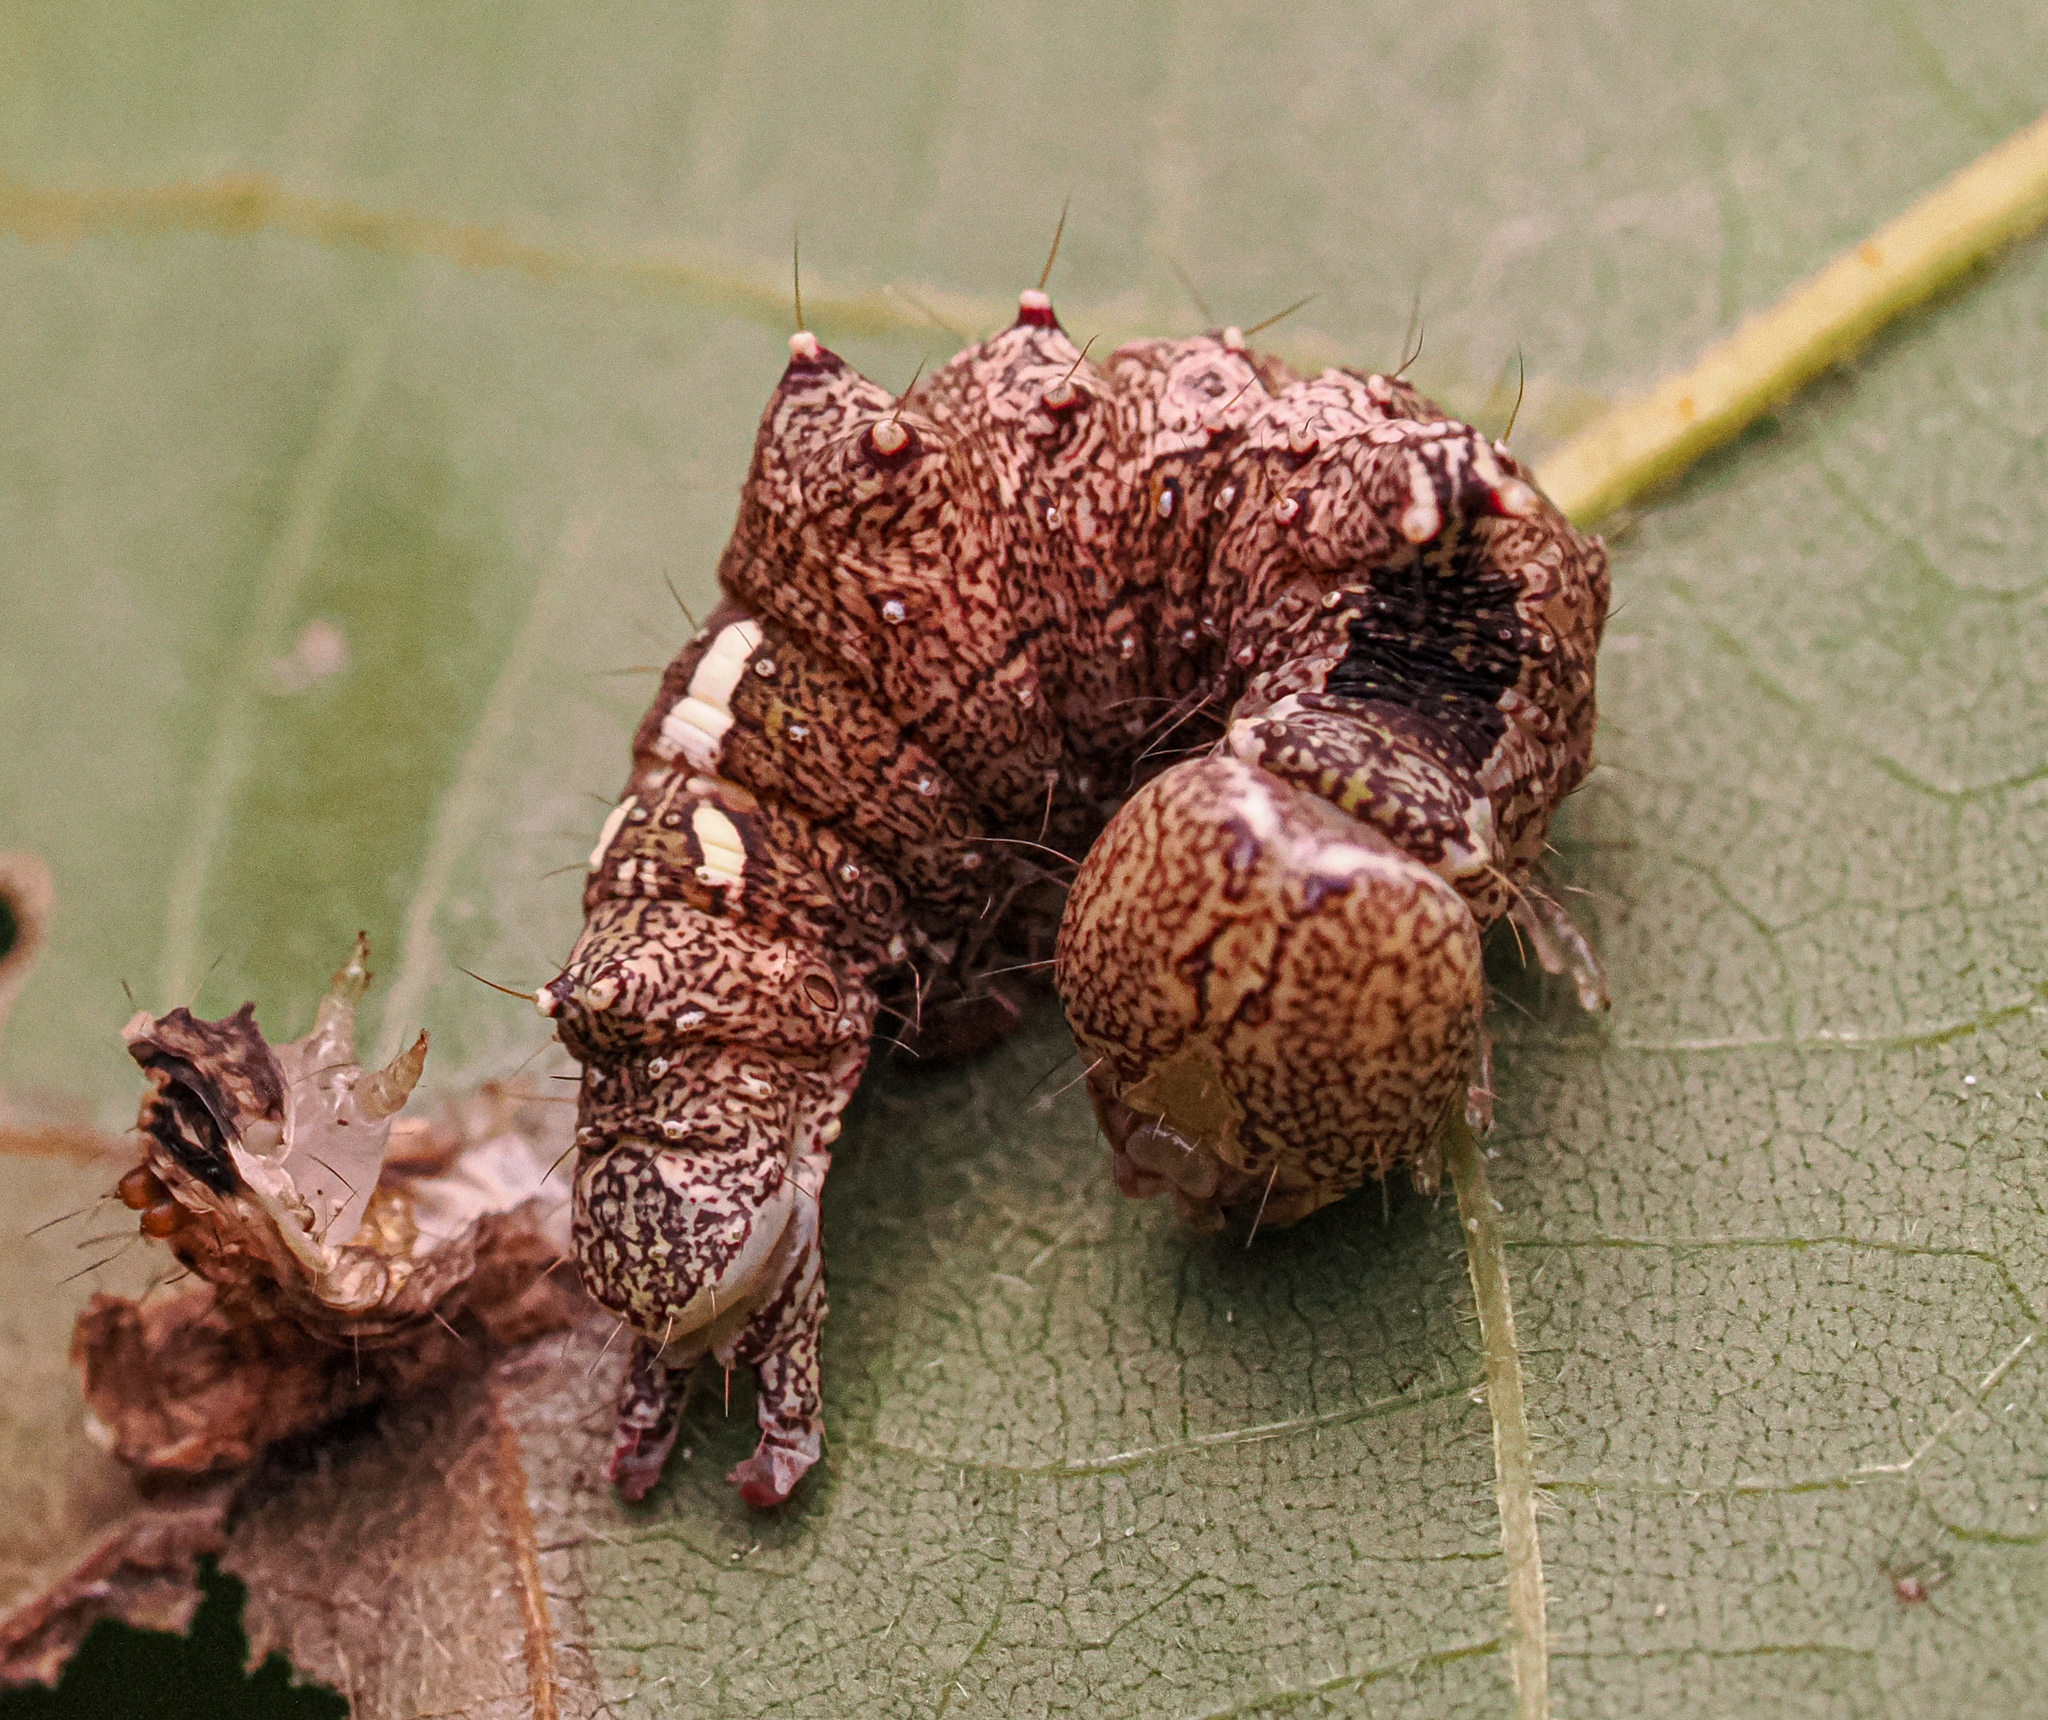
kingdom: Animalia
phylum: Arthropoda
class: Insecta
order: Lepidoptera
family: Notodontidae
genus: Schizura
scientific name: Schizura
